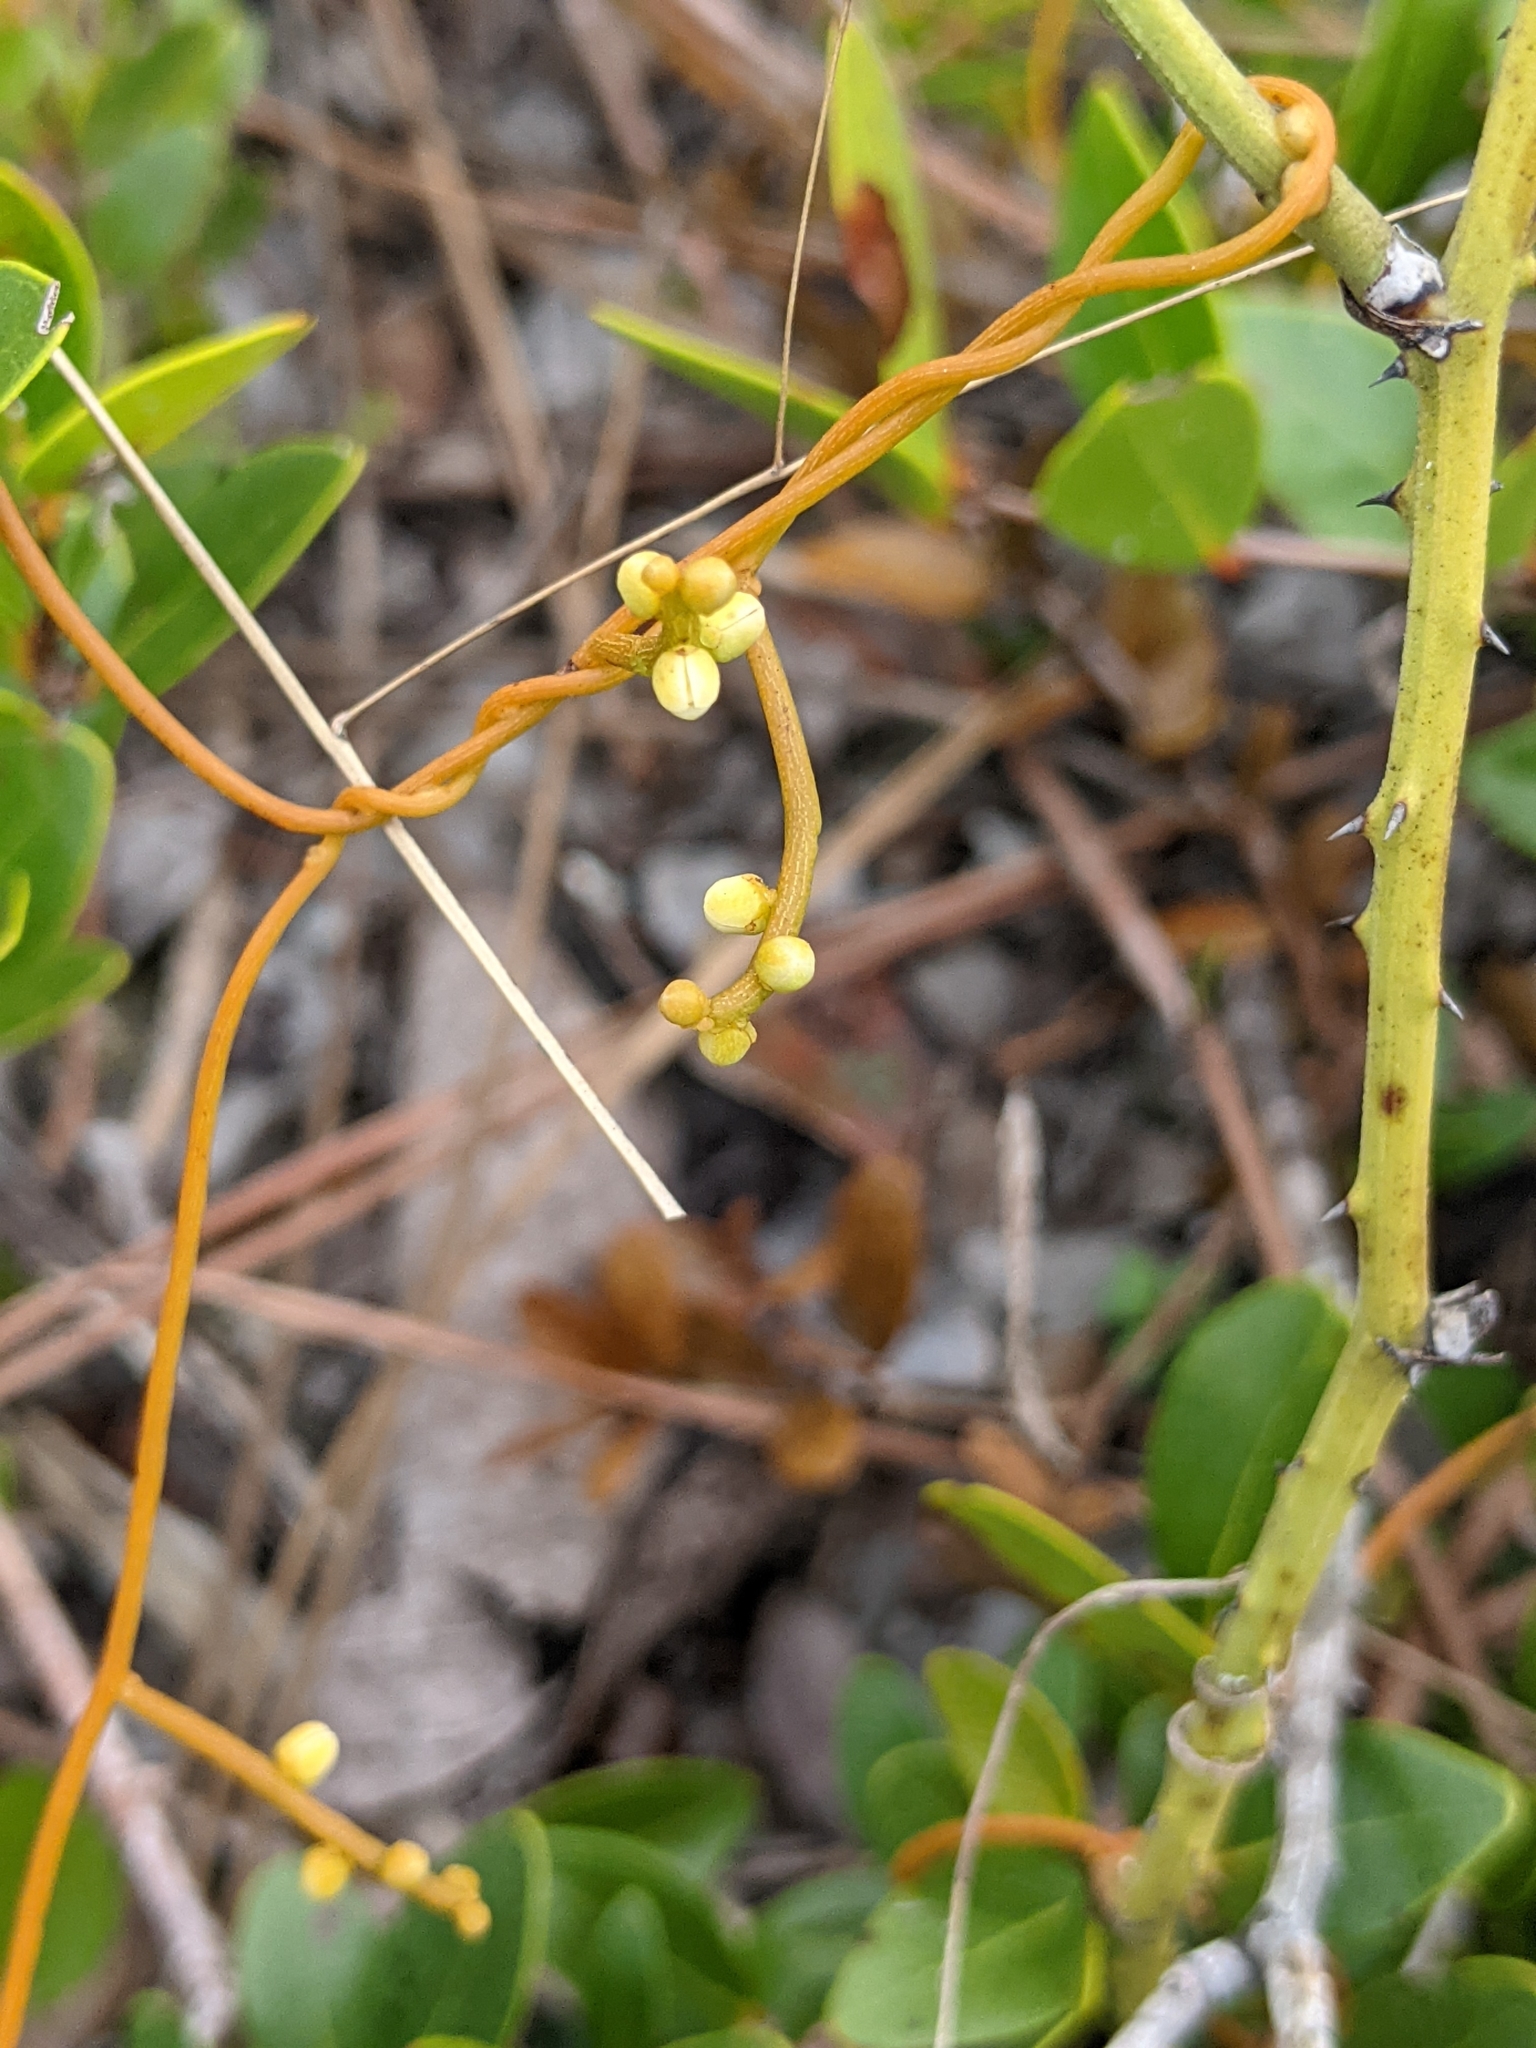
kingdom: Plantae
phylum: Tracheophyta
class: Magnoliopsida
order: Laurales
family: Lauraceae
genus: Cassytha
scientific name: Cassytha filiformis
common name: Dodder-laurel
